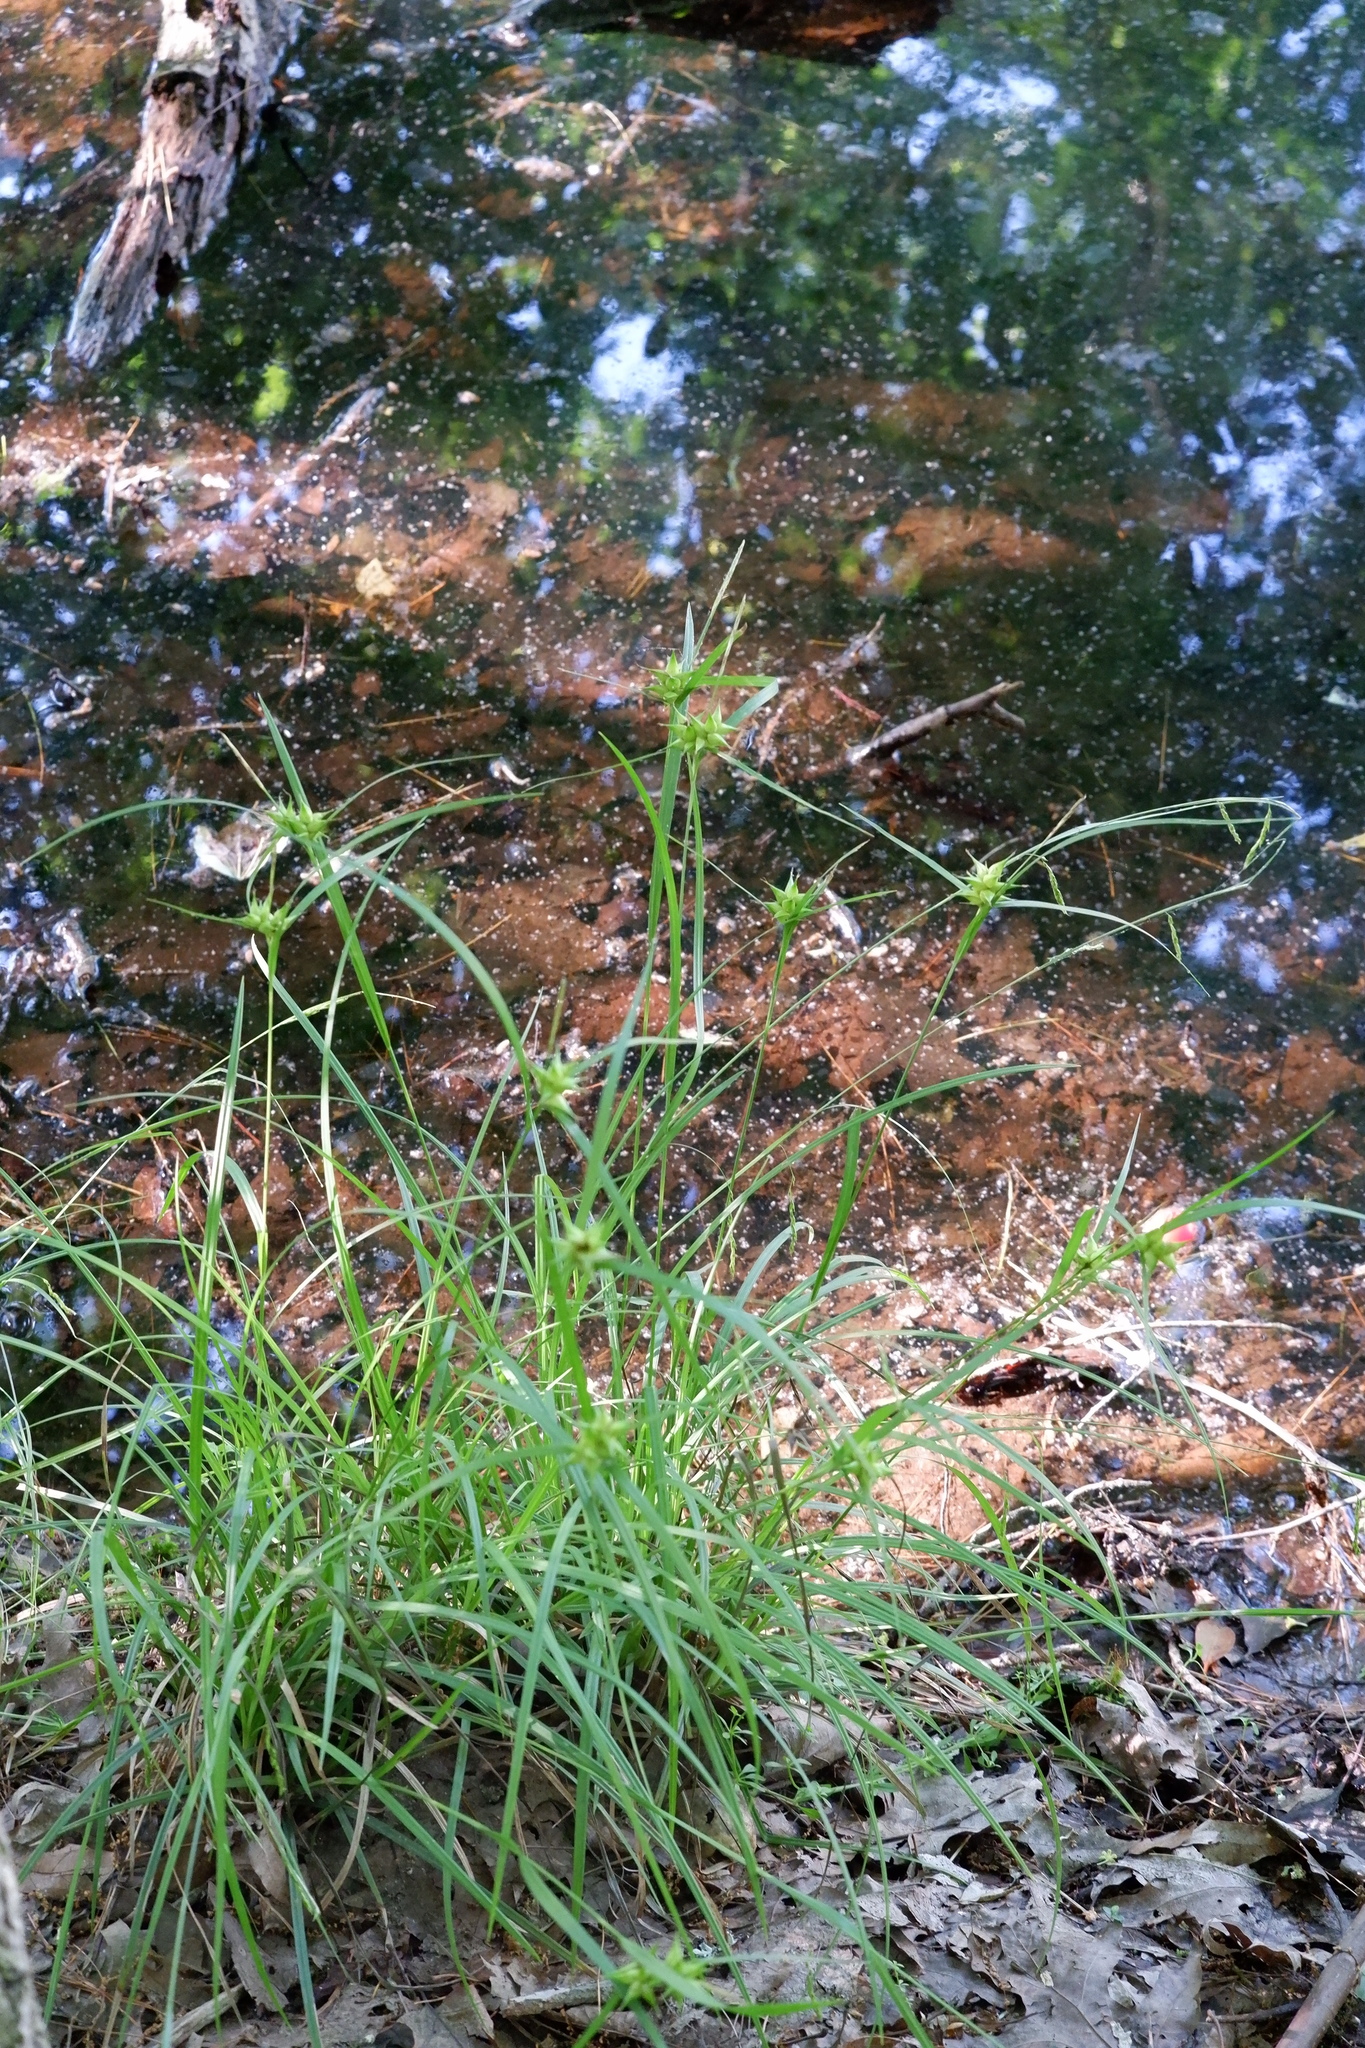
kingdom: Plantae
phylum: Tracheophyta
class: Liliopsida
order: Poales
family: Cyperaceae
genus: Carex
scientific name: Carex intumescens
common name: Greater bladder sedge
